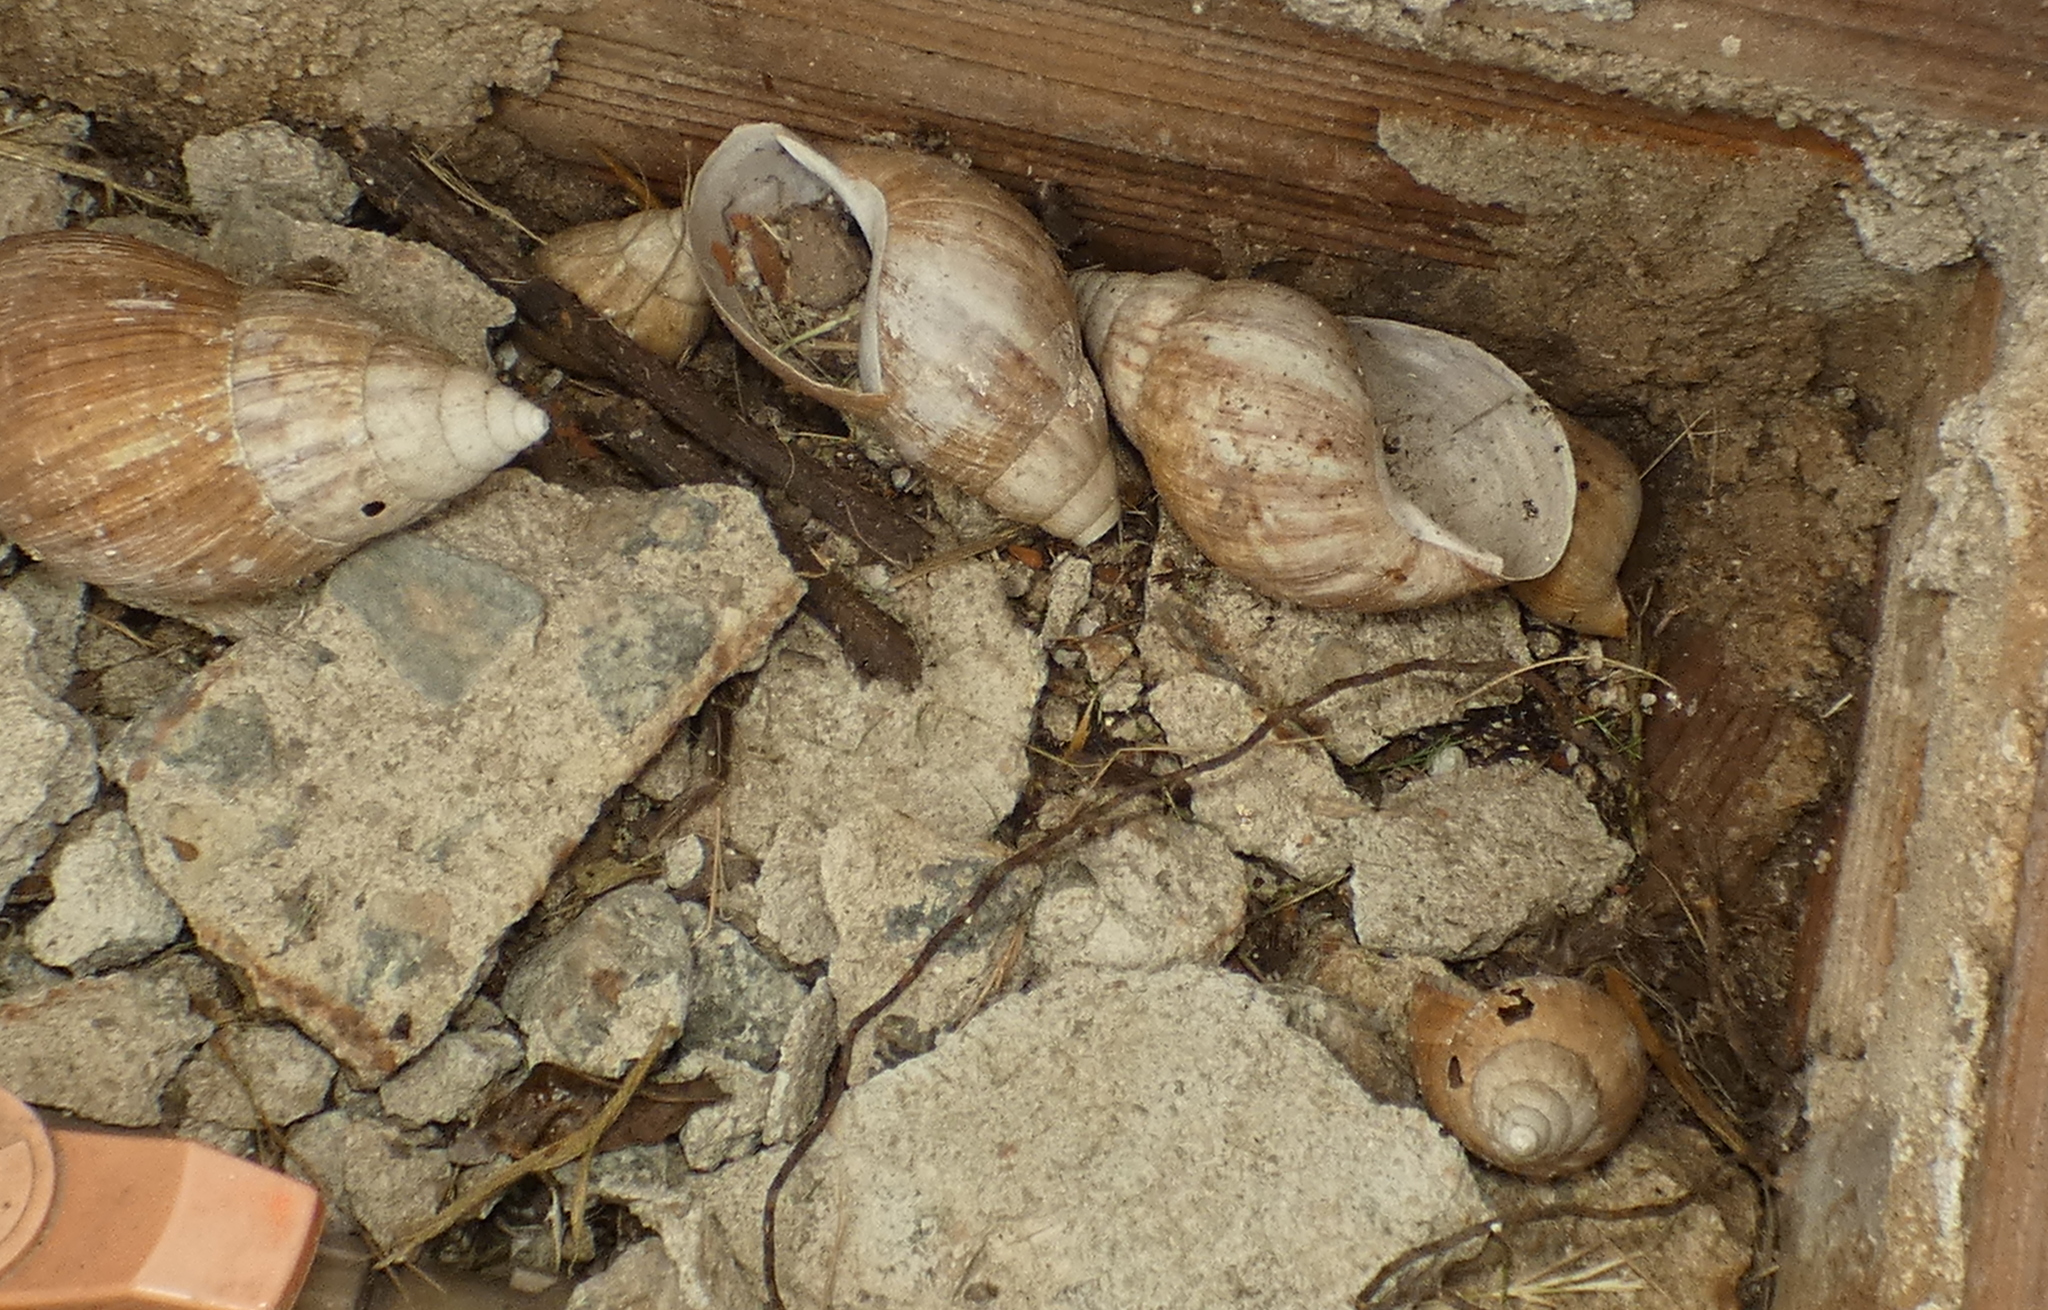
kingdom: Animalia
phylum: Mollusca
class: Gastropoda
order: Stylommatophora
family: Achatinidae
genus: Lissachatina
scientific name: Lissachatina fulica
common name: Giant african snail
